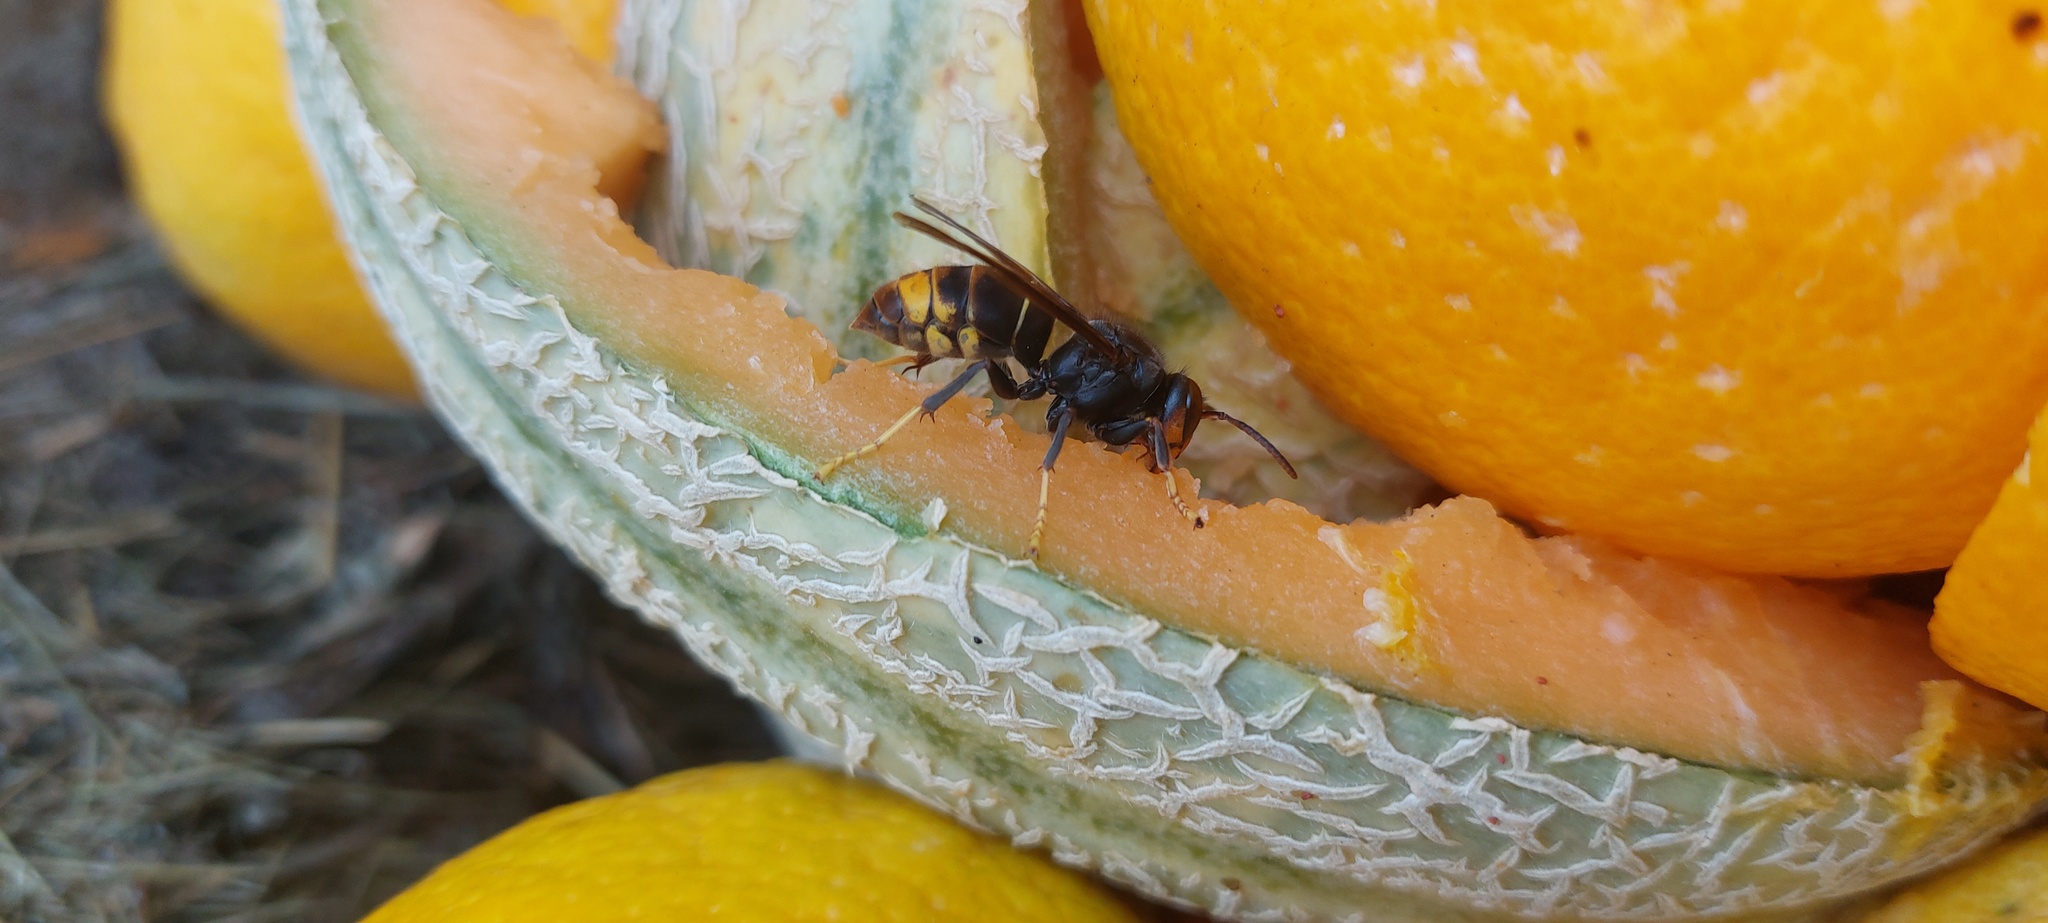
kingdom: Animalia
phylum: Arthropoda
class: Insecta
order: Hymenoptera
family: Vespidae
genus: Vespa
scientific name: Vespa velutina
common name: Asian hornet
